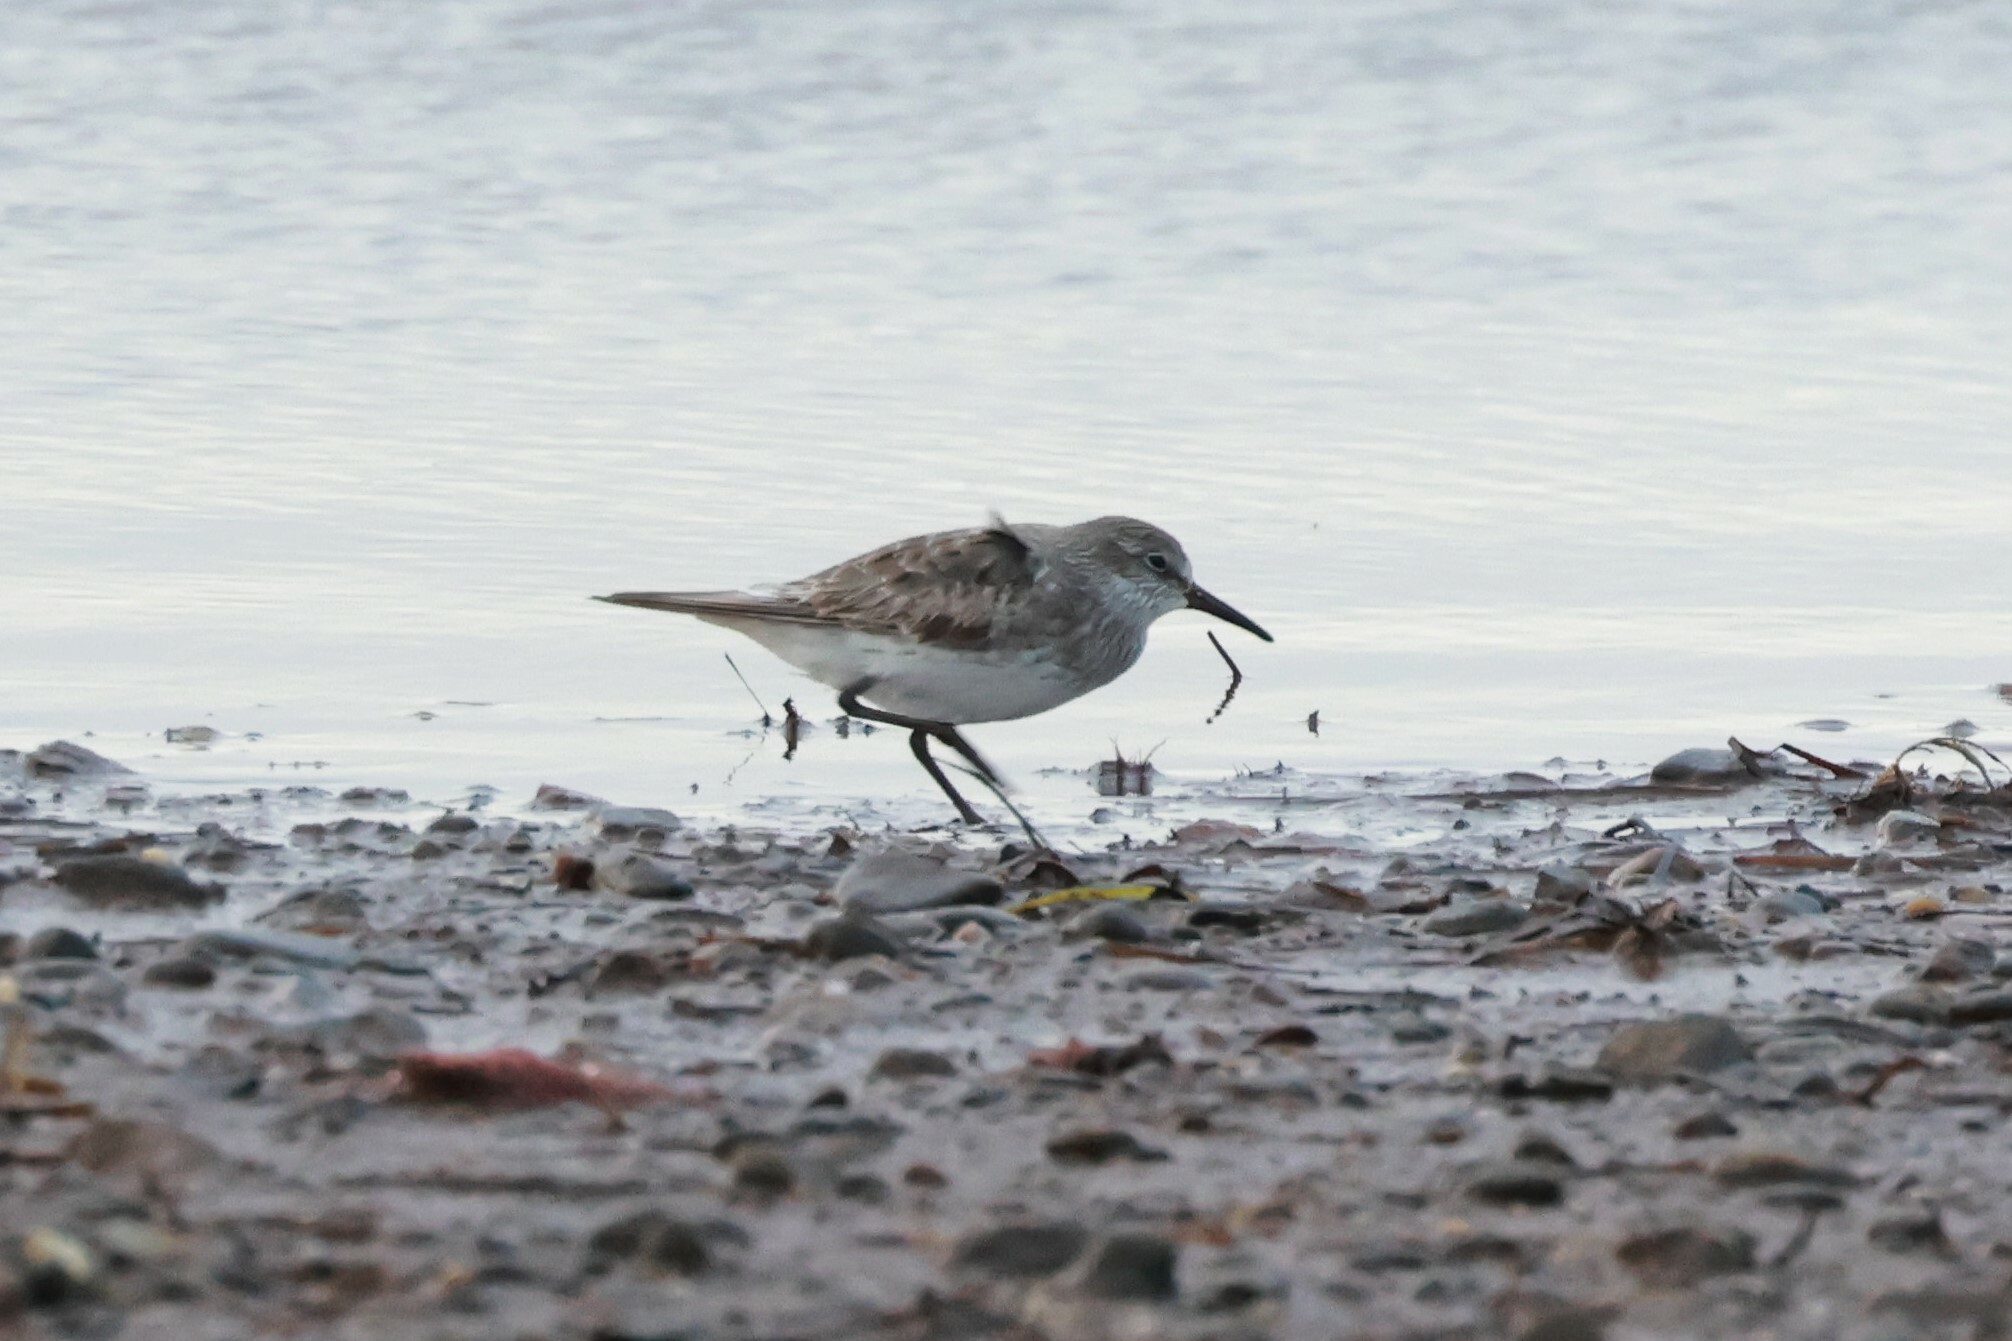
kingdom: Animalia
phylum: Chordata
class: Aves
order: Charadriiformes
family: Scolopacidae
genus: Calidris
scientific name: Calidris fuscicollis
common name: White-rumped sandpiper
